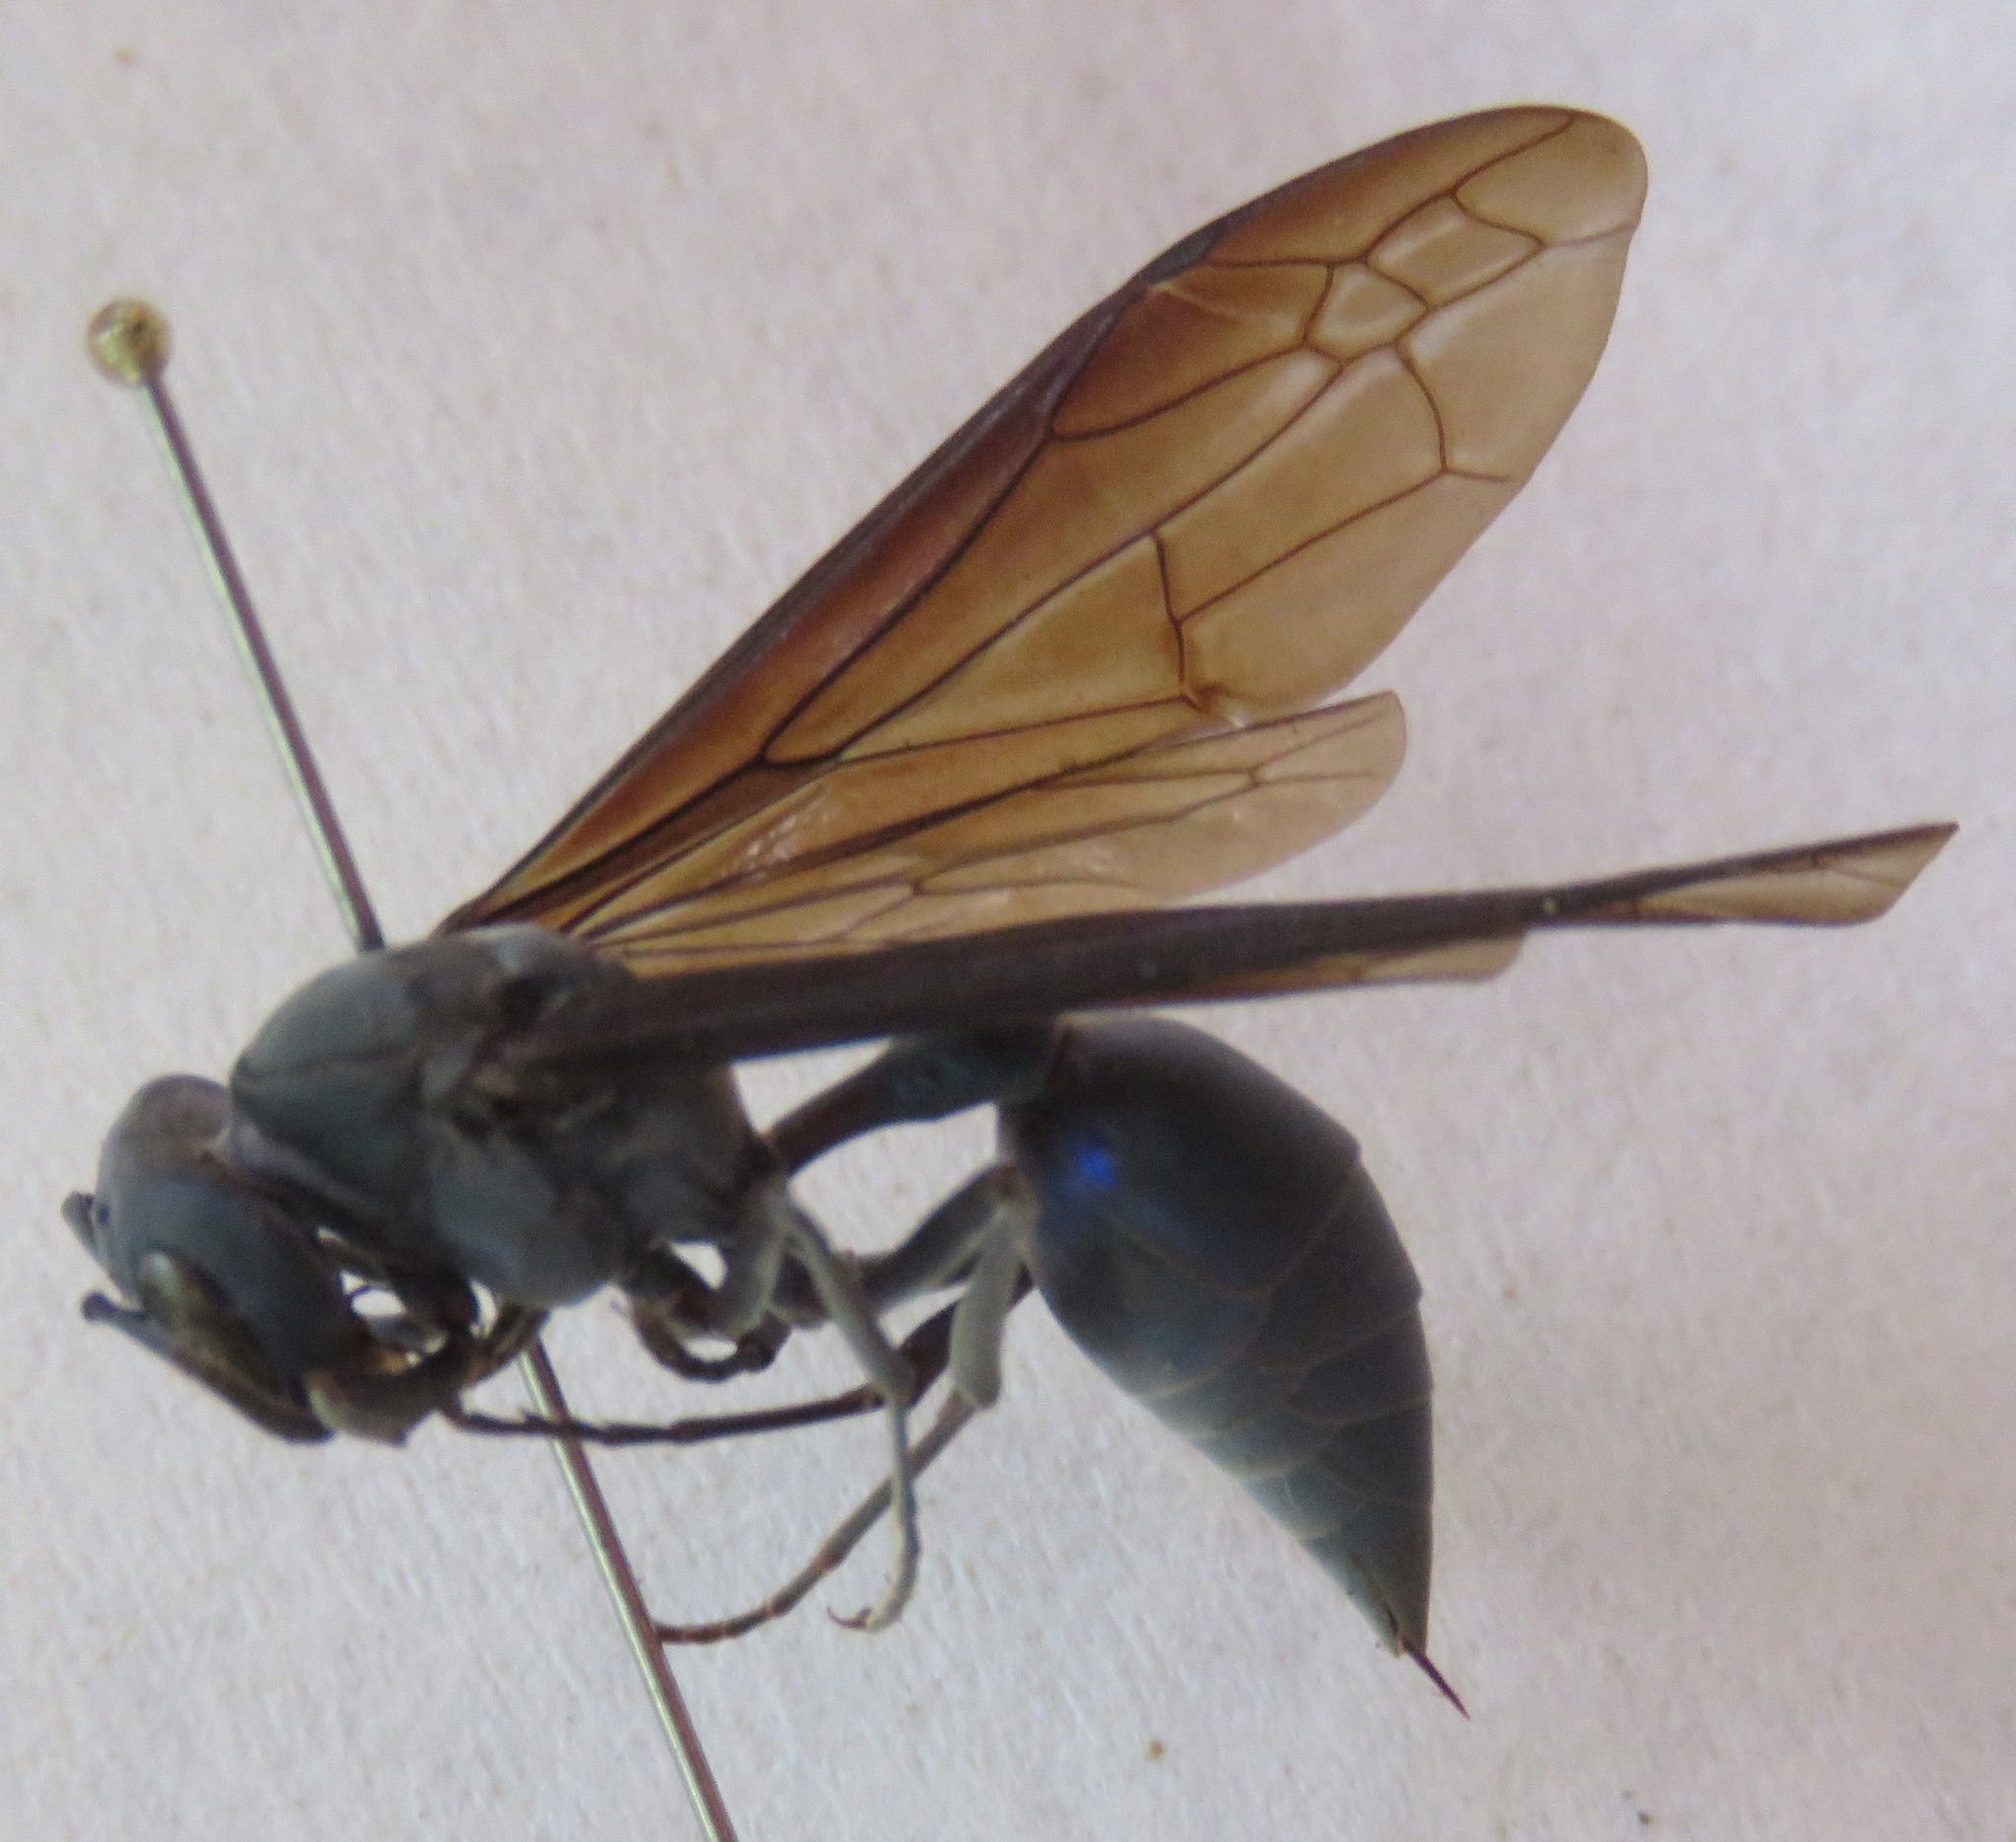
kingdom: Animalia
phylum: Arthropoda
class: Insecta
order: Hymenoptera
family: Vespidae
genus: Synoeca
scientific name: Synoeca cyanea
